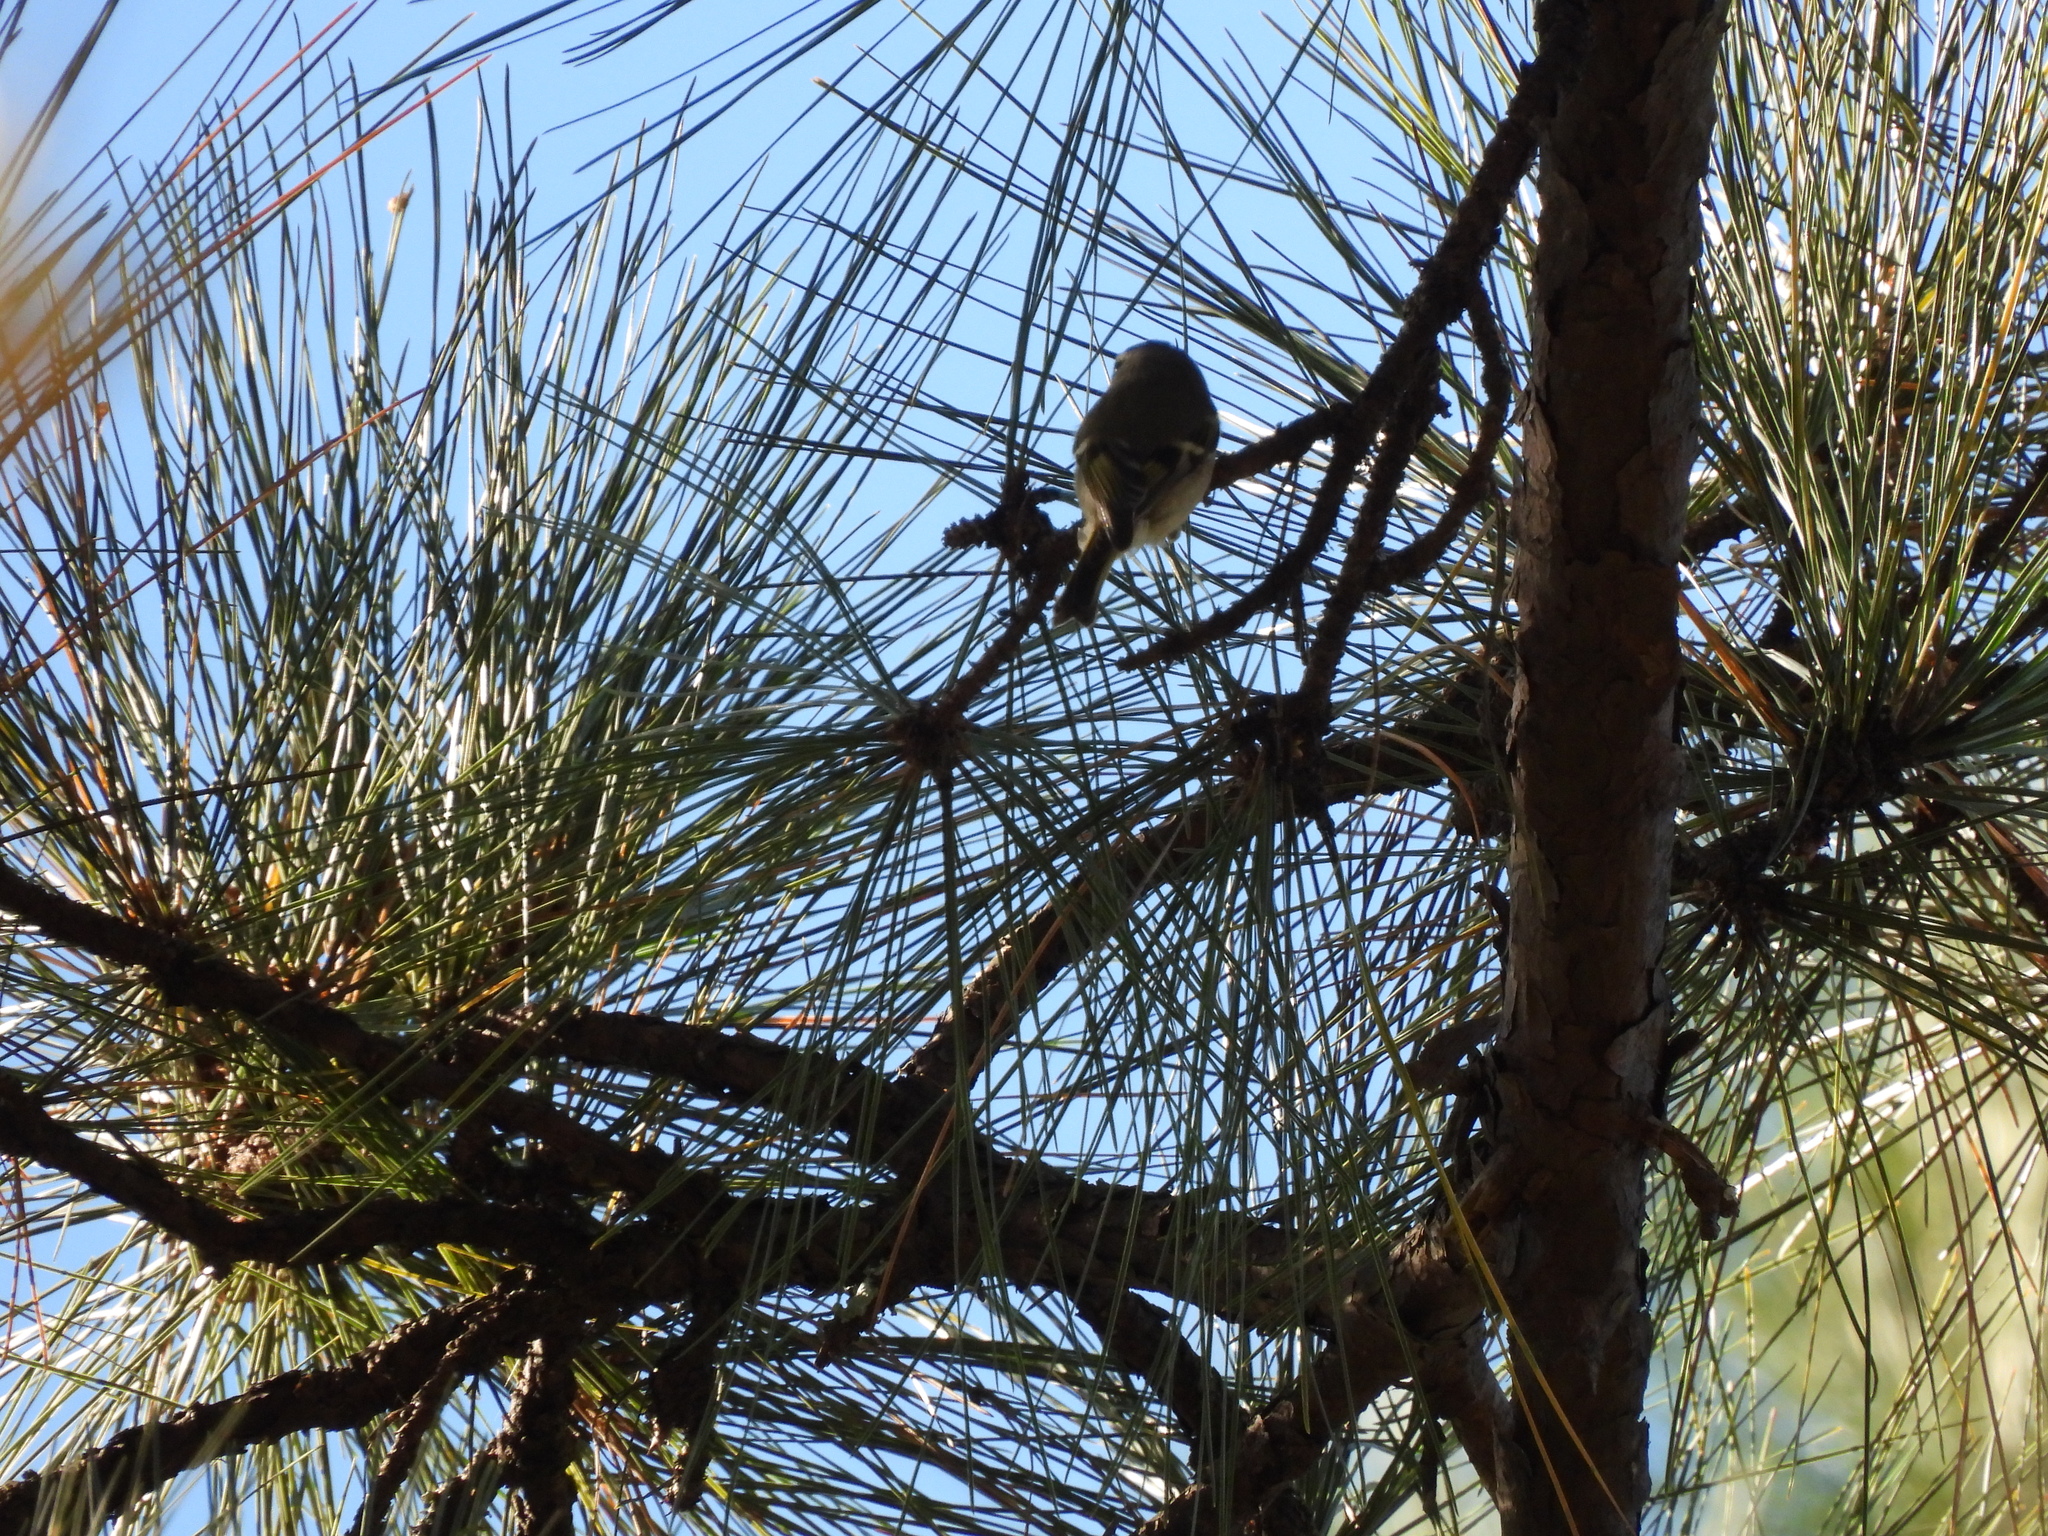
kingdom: Animalia
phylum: Chordata
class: Aves
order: Passeriformes
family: Regulidae
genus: Regulus
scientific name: Regulus satrapa
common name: Golden-crowned kinglet
